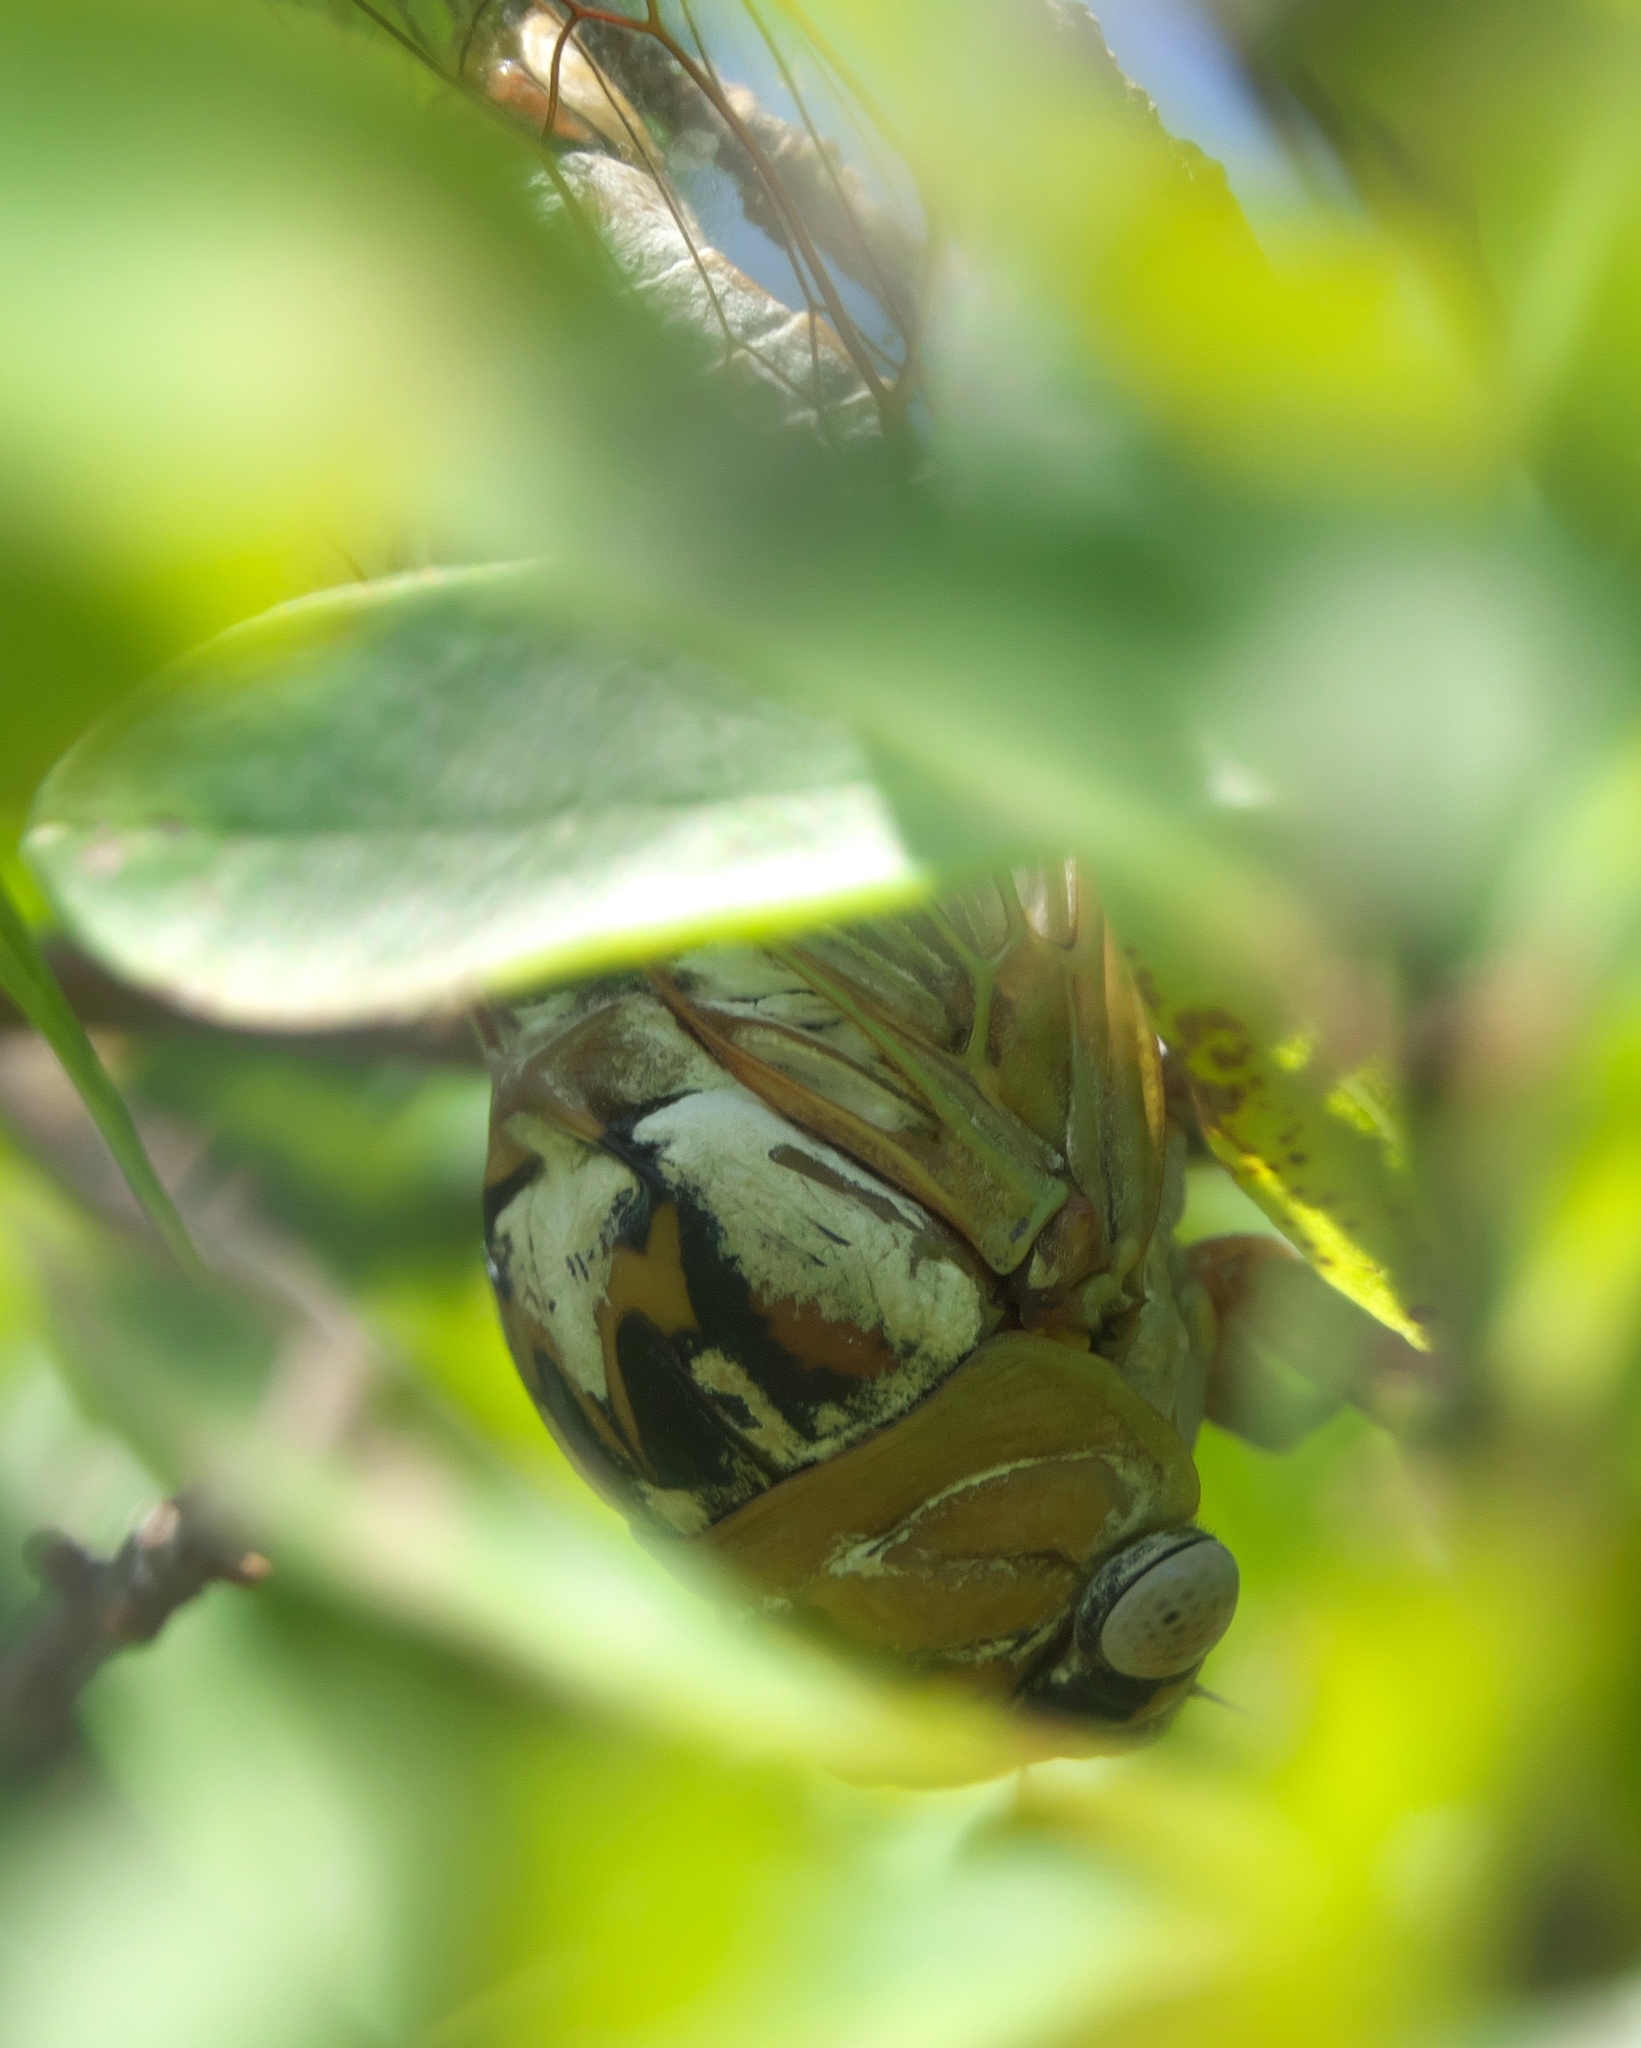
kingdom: Animalia
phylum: Arthropoda
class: Insecta
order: Hemiptera
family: Cicadidae
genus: Megatibicen
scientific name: Megatibicen dealbatus
